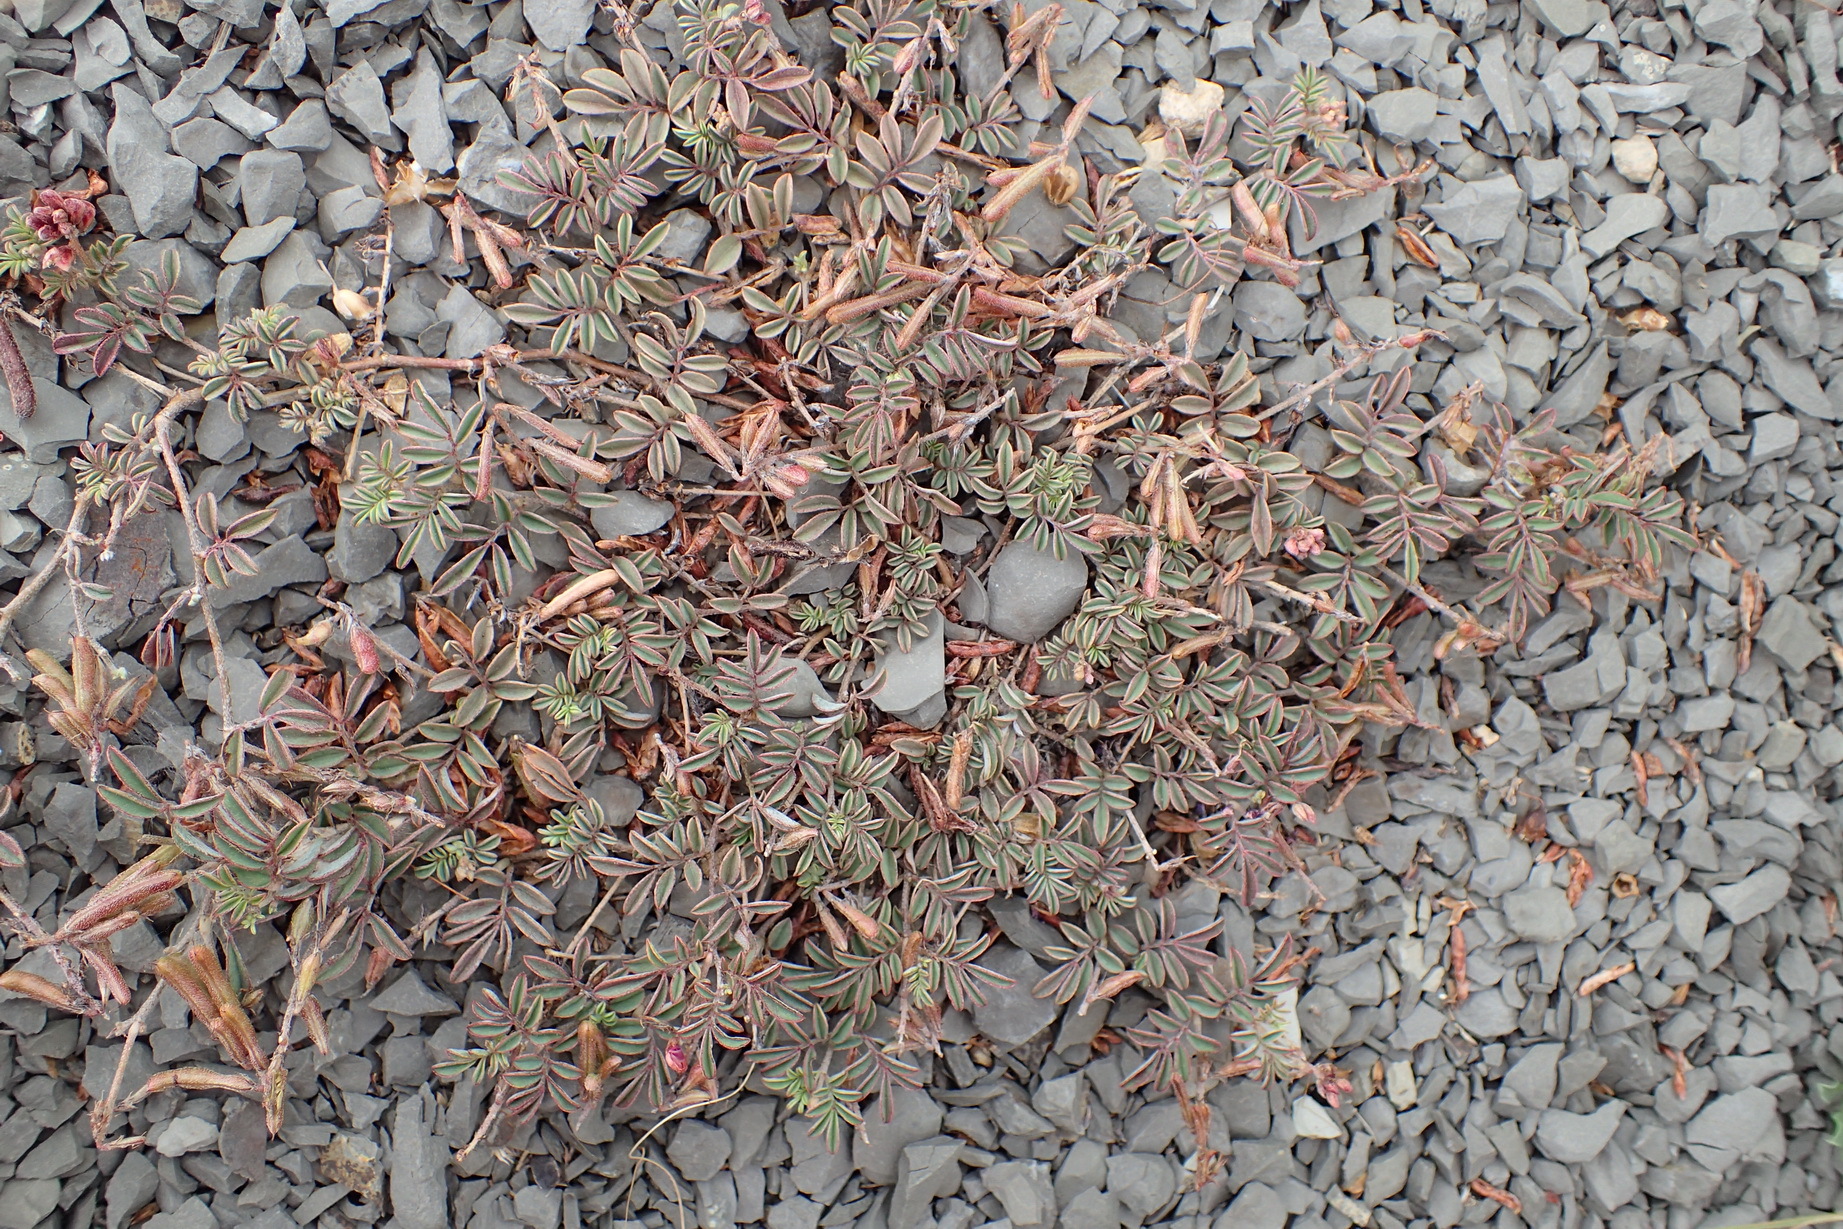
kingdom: Plantae
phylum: Tracheophyta
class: Magnoliopsida
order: Fabales
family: Fabaceae
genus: Indigofera
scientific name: Indigofera alternans
